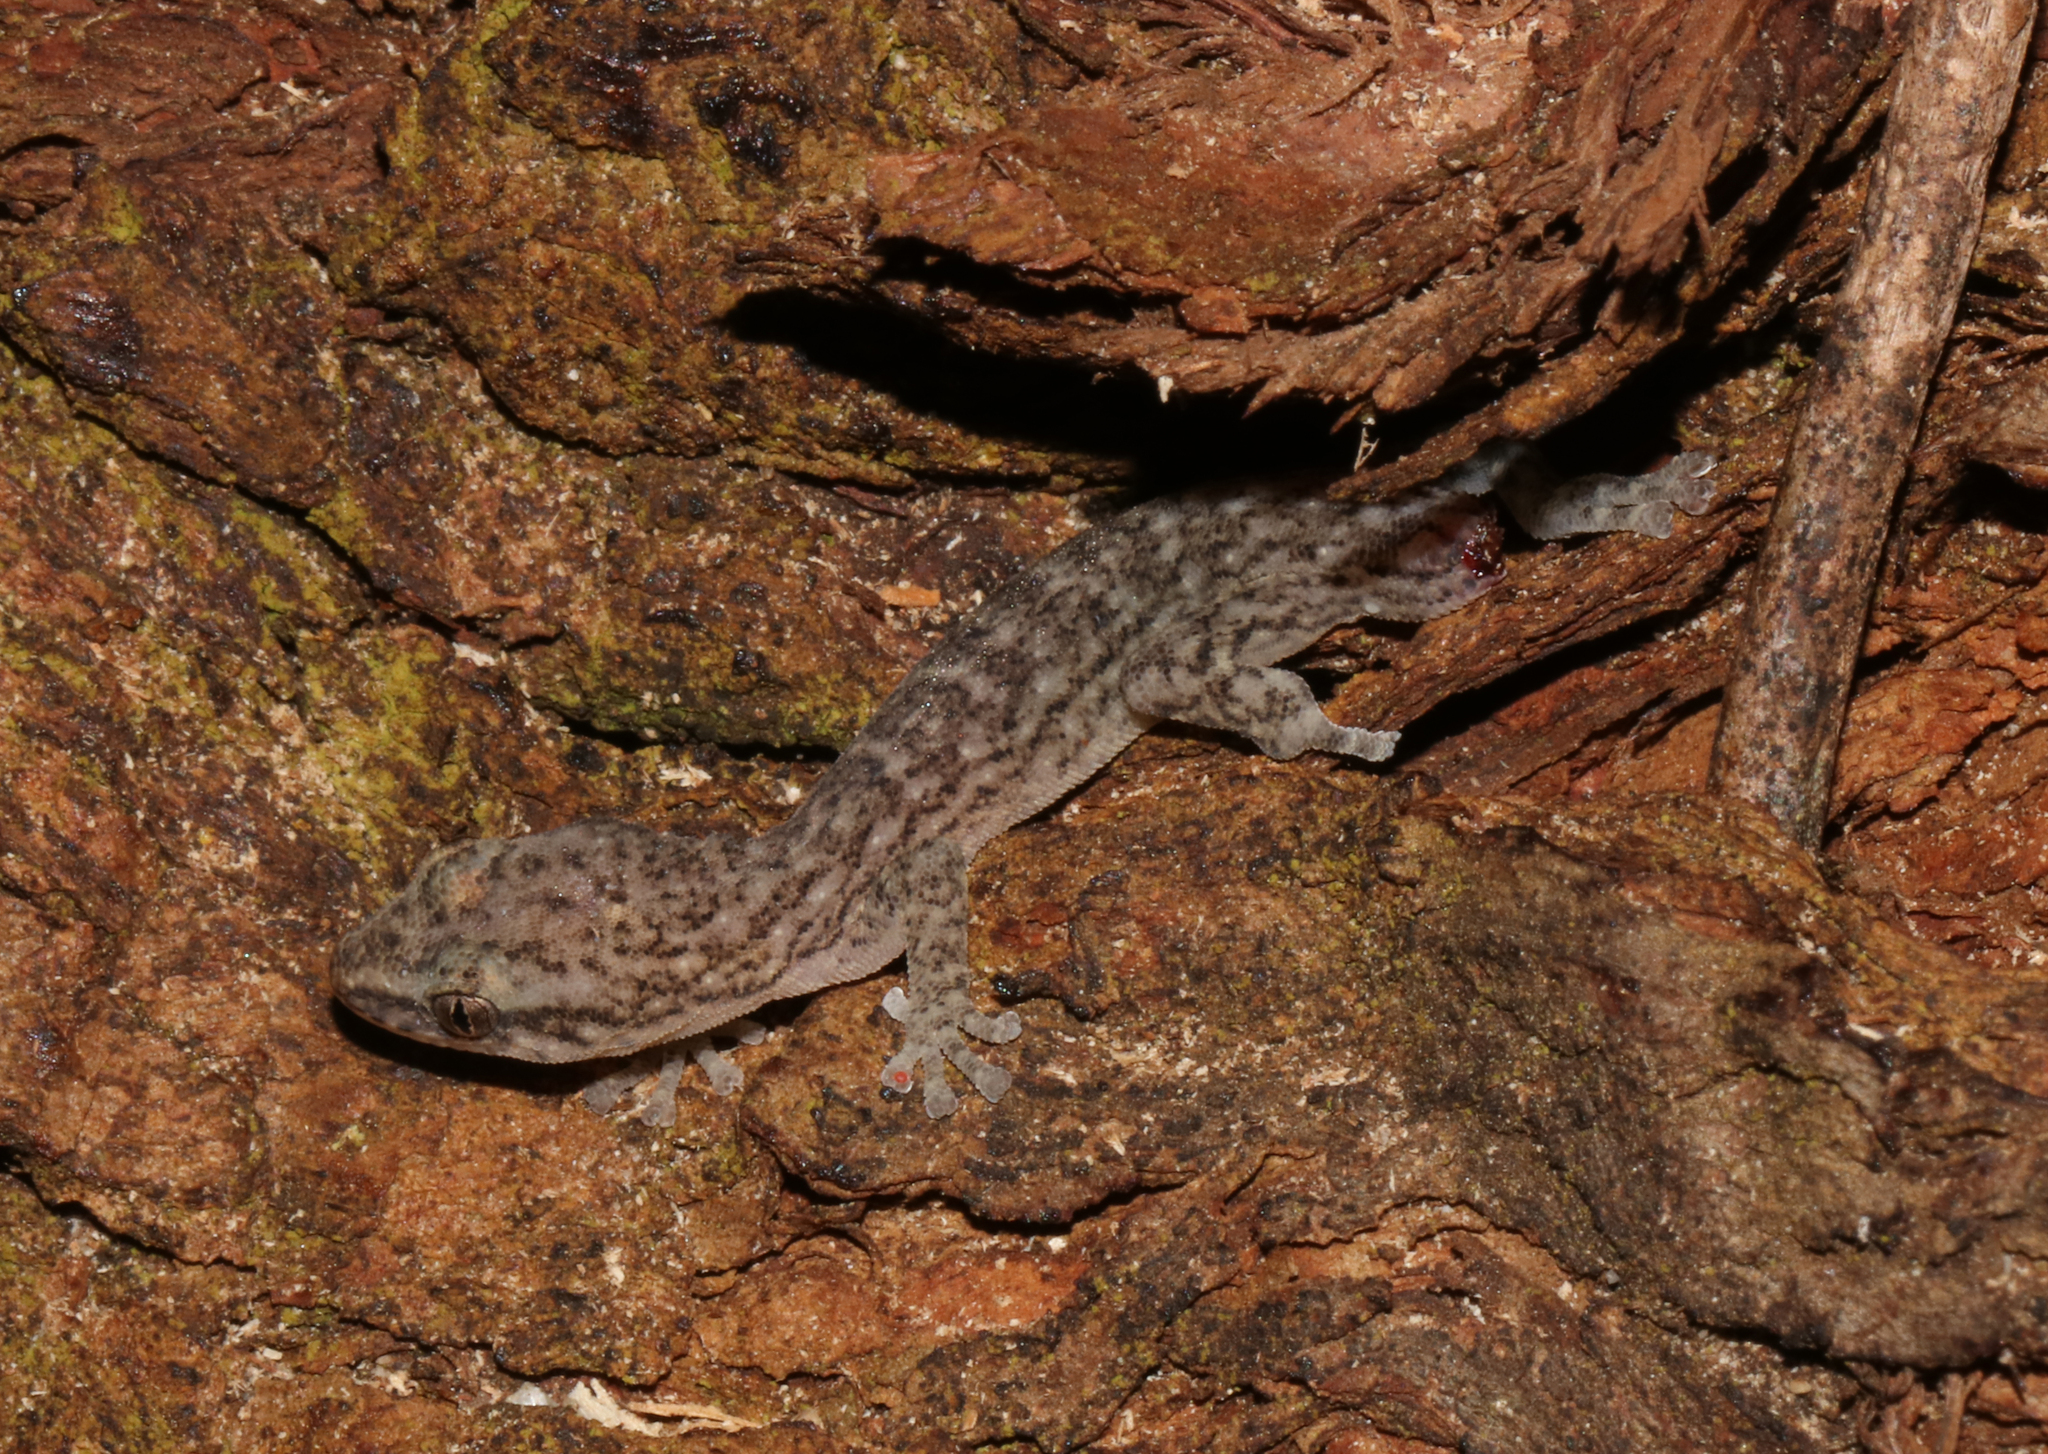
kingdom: Animalia
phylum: Chordata
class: Squamata
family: Gekkonidae
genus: Afrogecko
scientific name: Afrogecko porphyreus
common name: Marbled leaf-toed gecko
